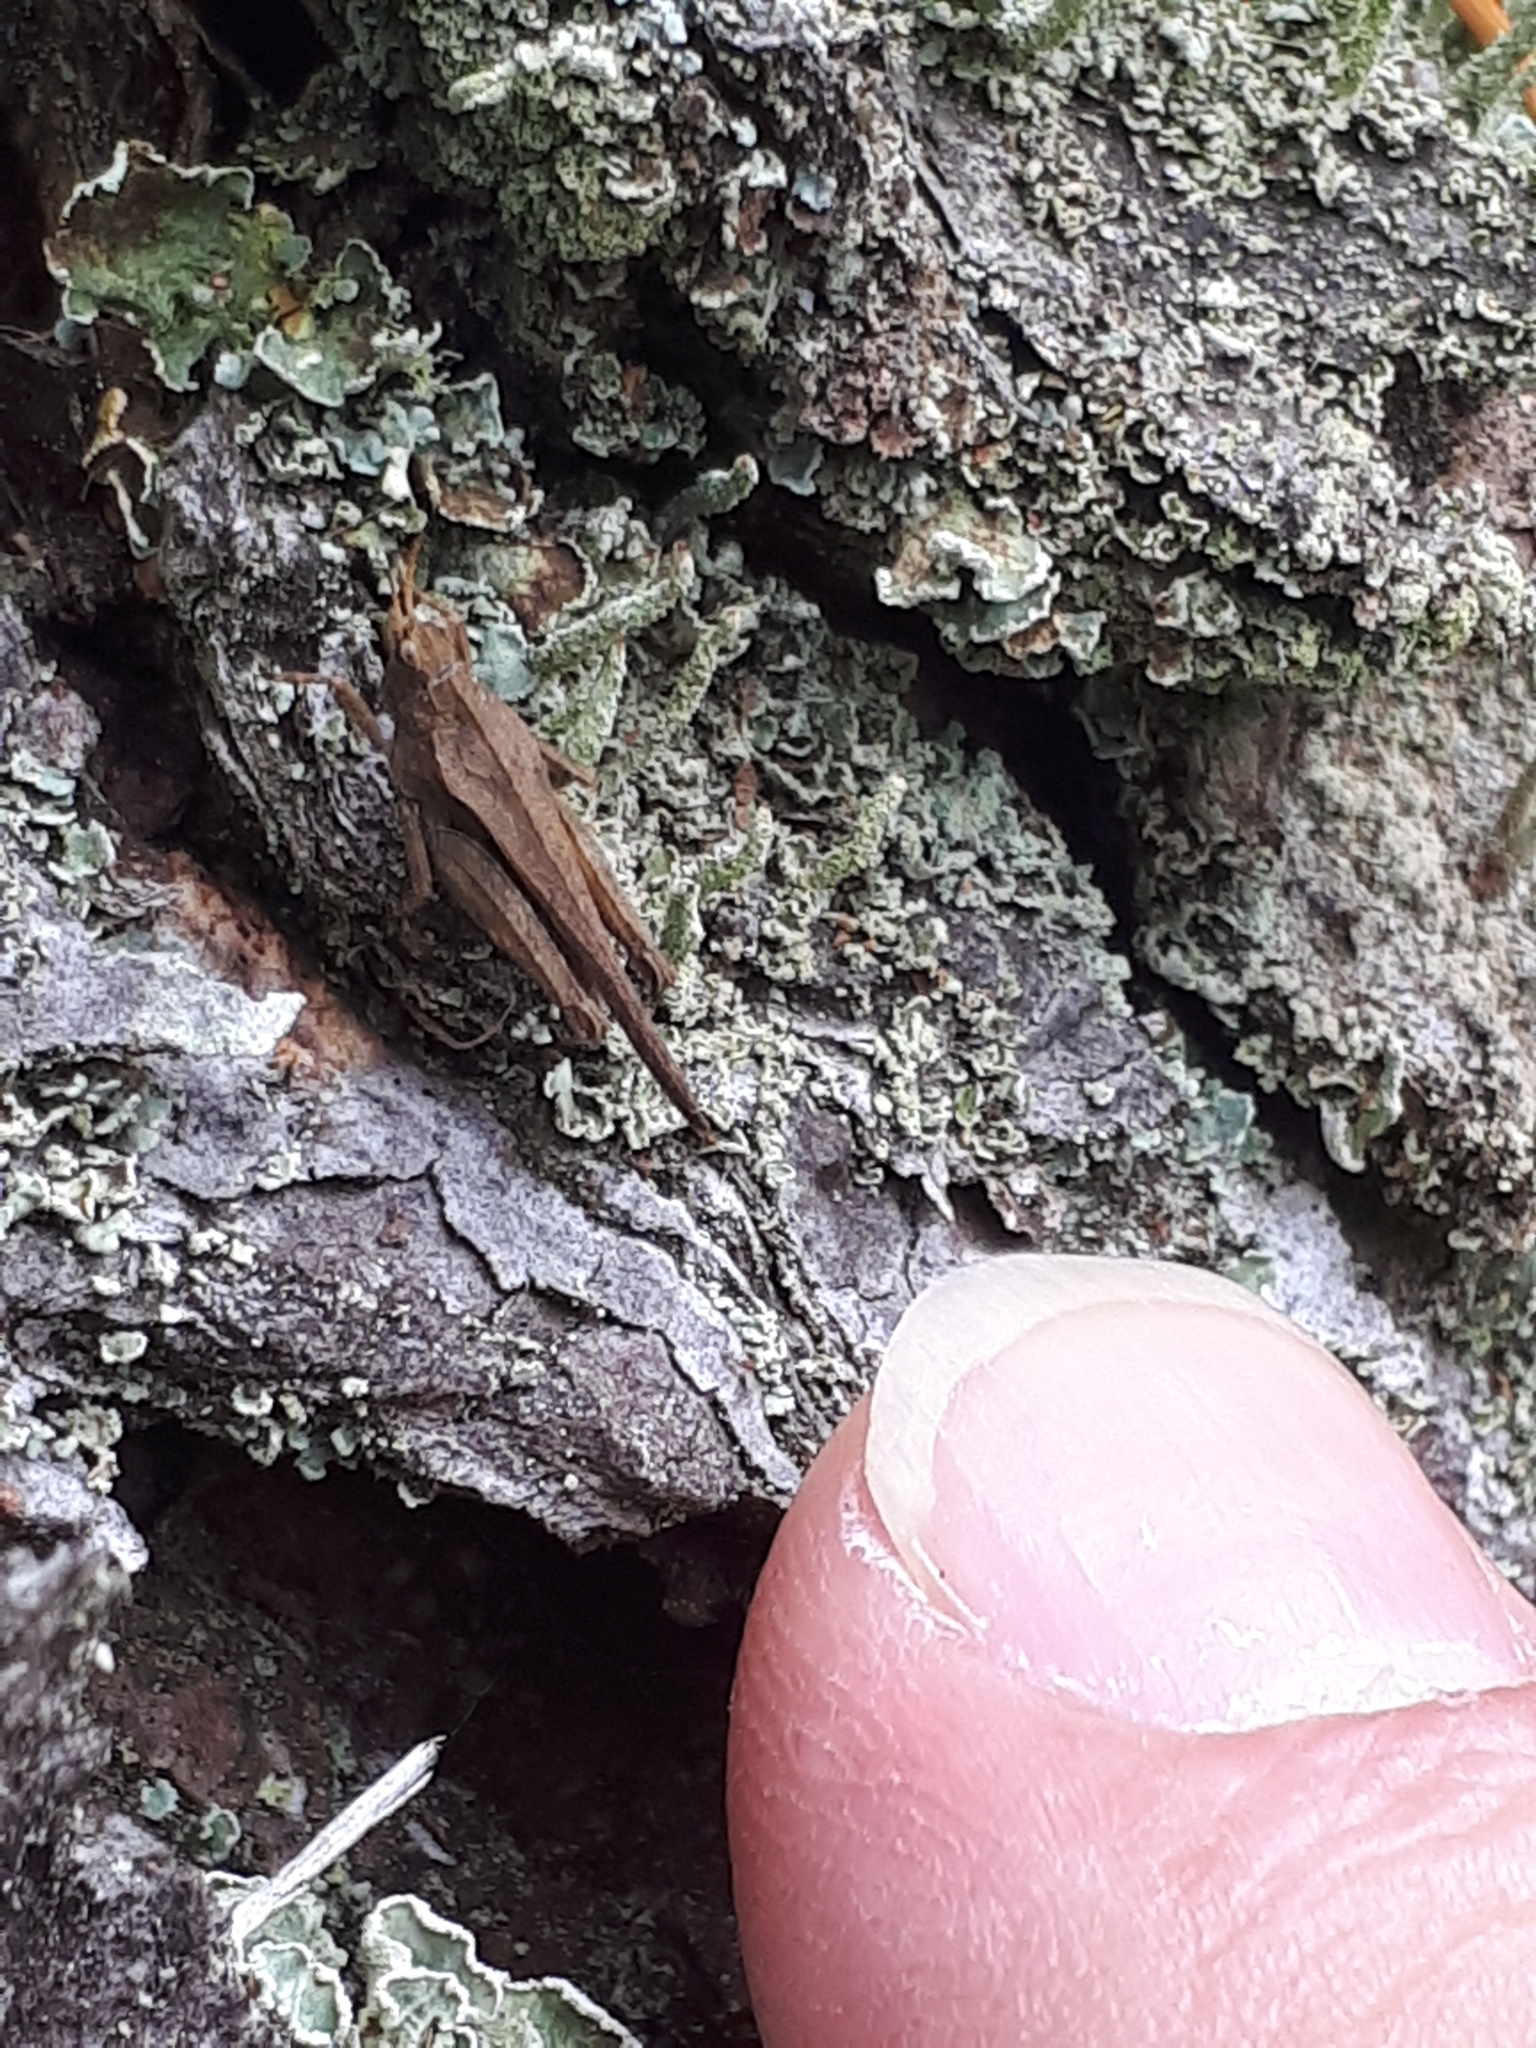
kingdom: Animalia
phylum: Arthropoda
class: Insecta
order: Orthoptera
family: Tetrigidae
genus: Tetrix
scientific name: Tetrix subulata
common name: Slender ground-hopper
